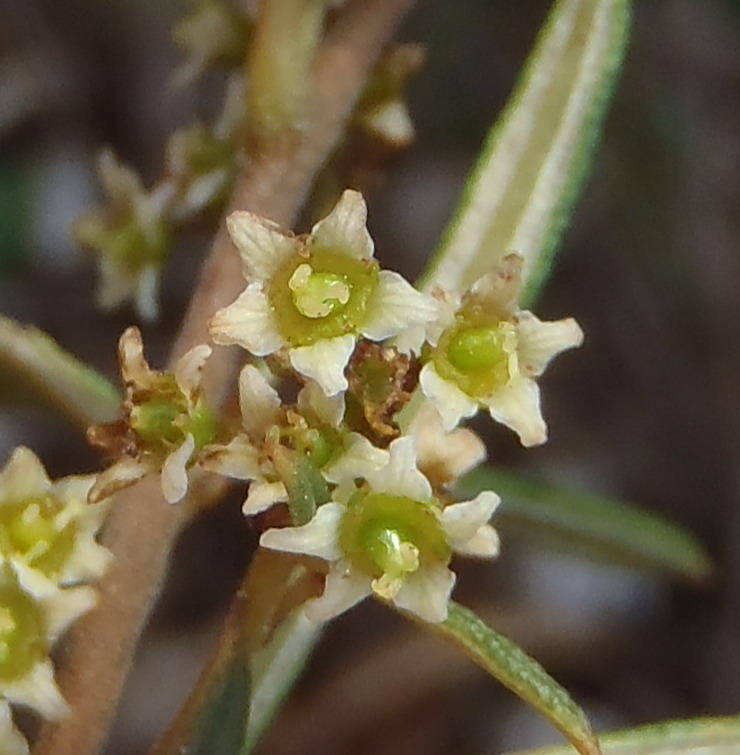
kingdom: Plantae
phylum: Tracheophyta
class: Magnoliopsida
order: Sapindales
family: Anacardiaceae
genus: Searsia
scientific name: Searsia rosmarinifolia
